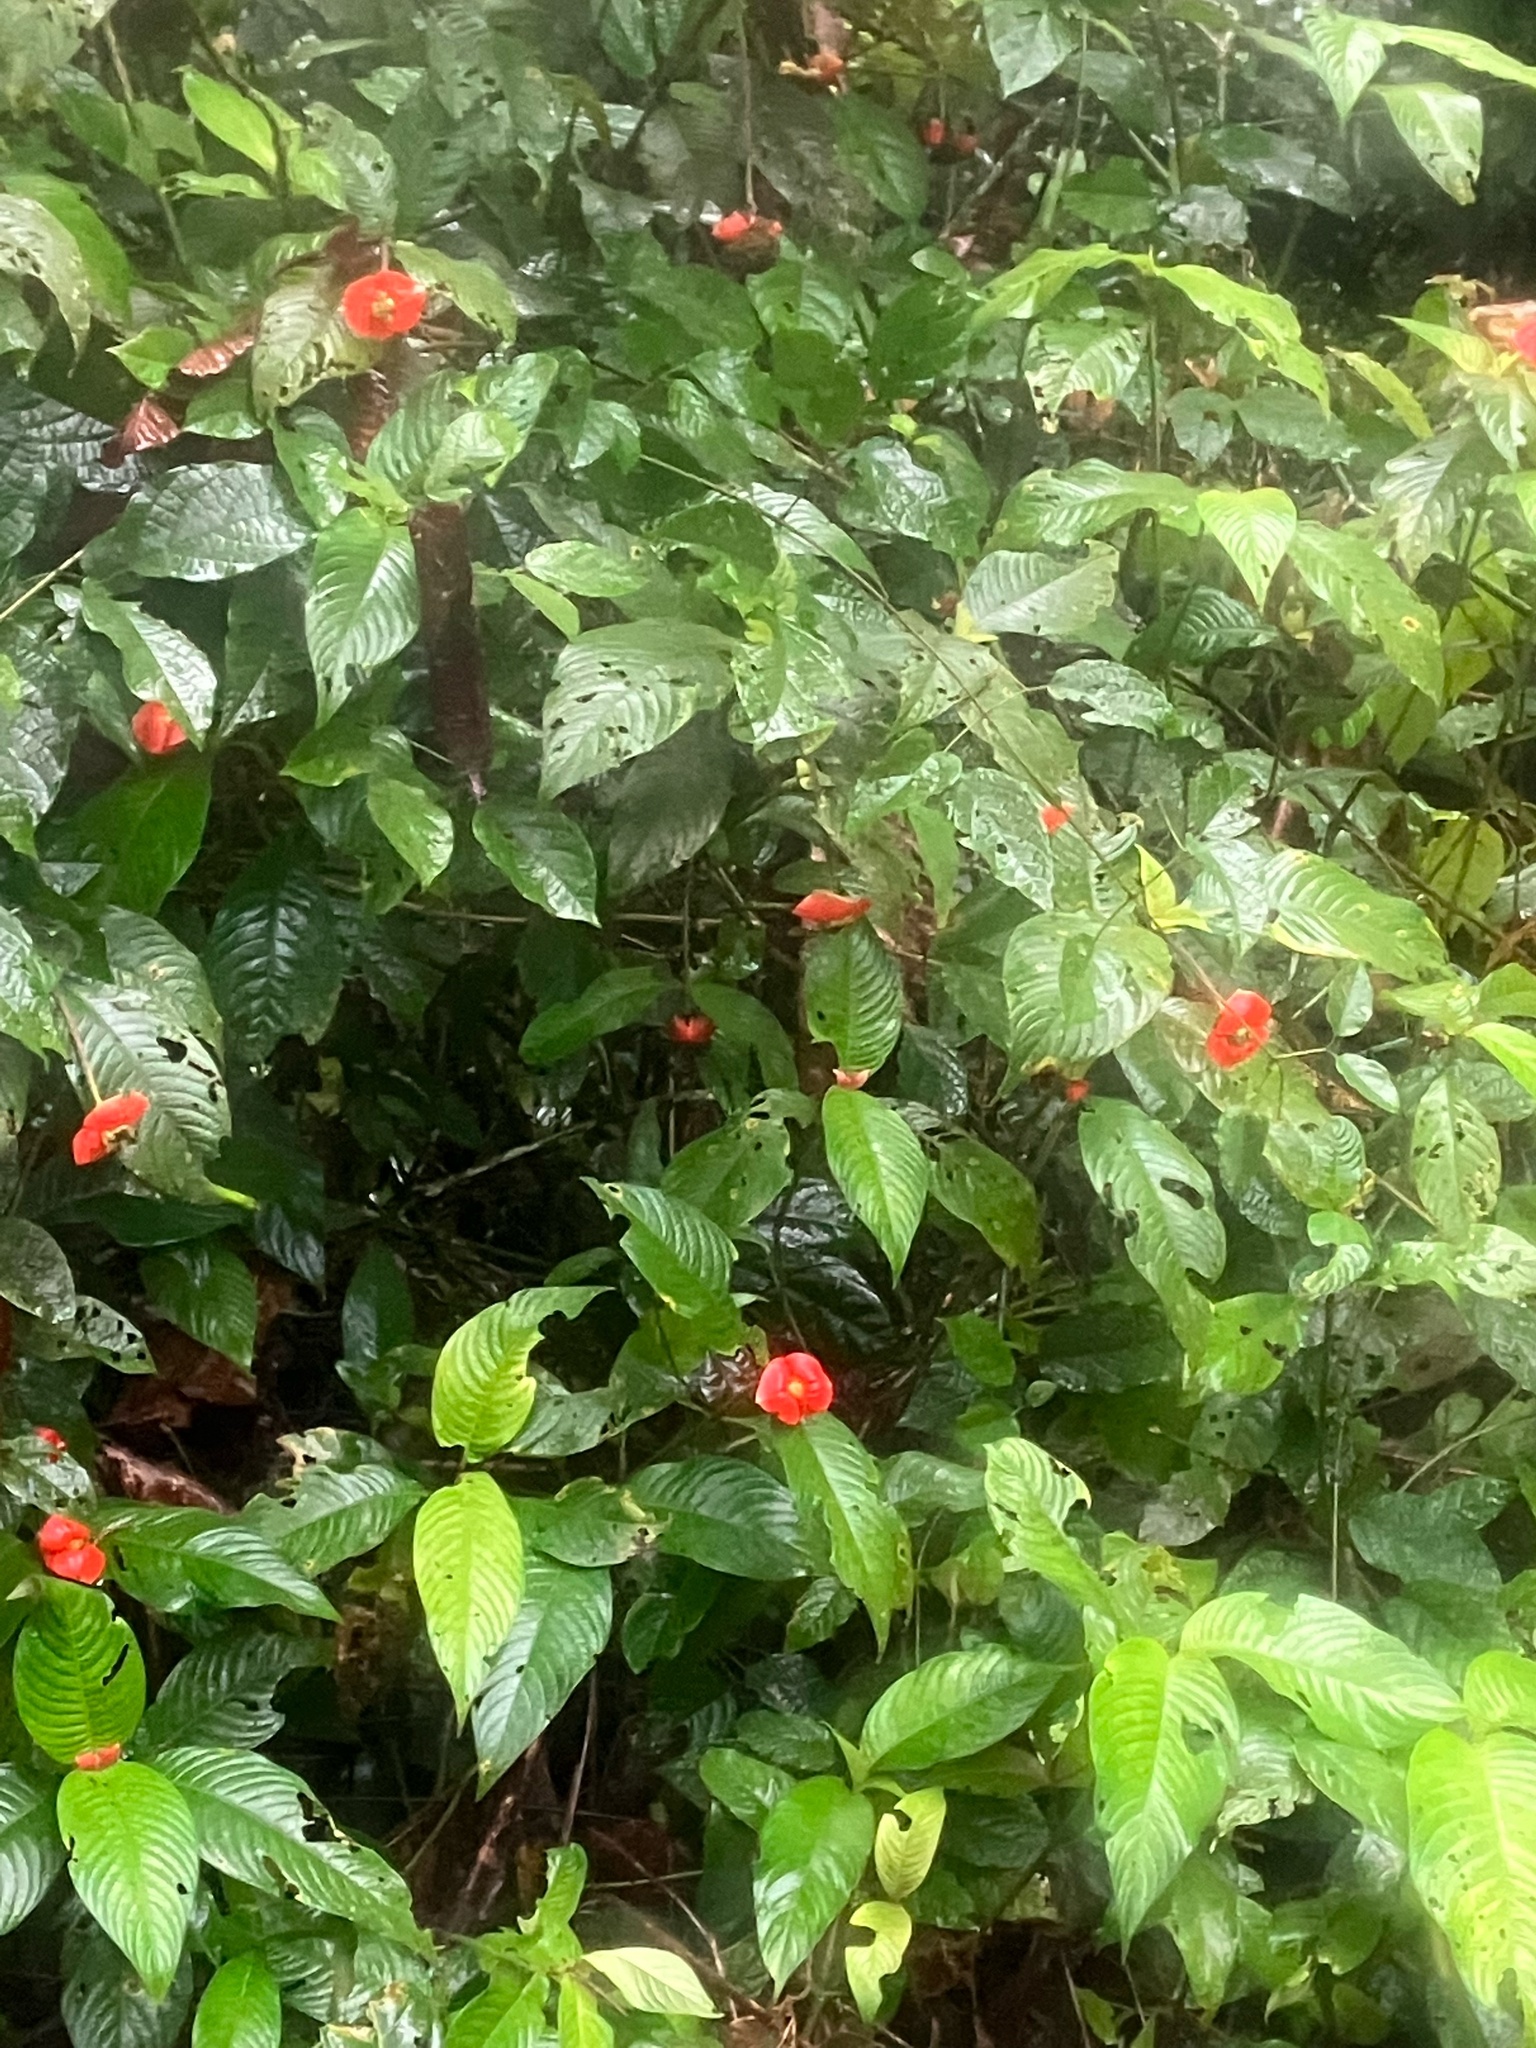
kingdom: Plantae
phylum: Tracheophyta
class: Magnoliopsida
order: Gentianales
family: Rubiaceae
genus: Palicourea
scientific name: Palicourea tomentosa
